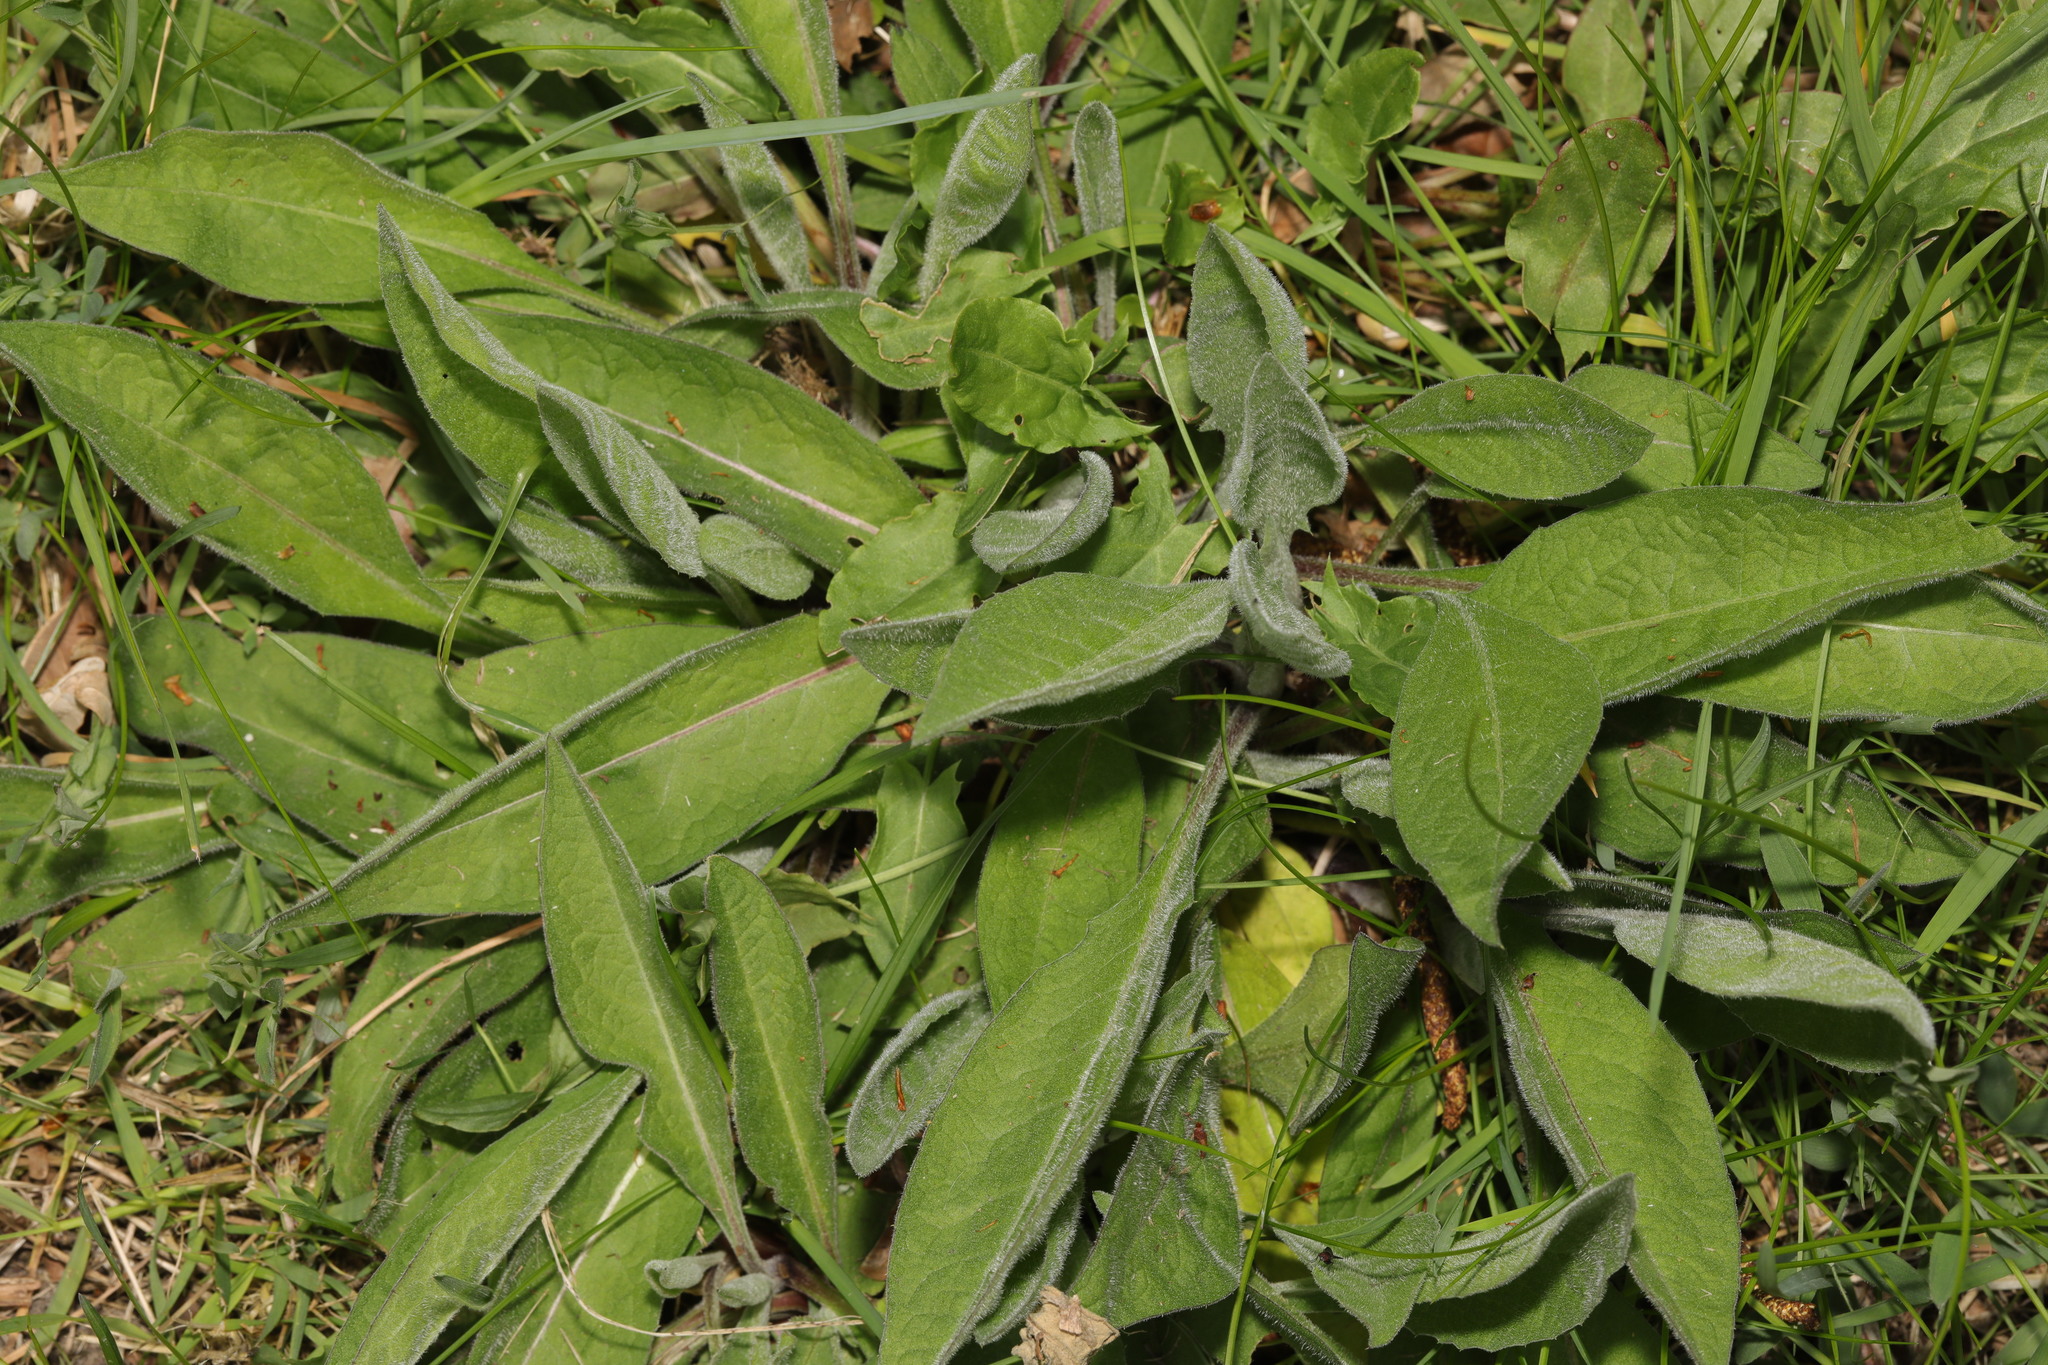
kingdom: Plantae
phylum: Tracheophyta
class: Magnoliopsida
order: Asterales
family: Asteraceae
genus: Centaurea
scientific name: Centaurea nigra
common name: Lesser knapweed
